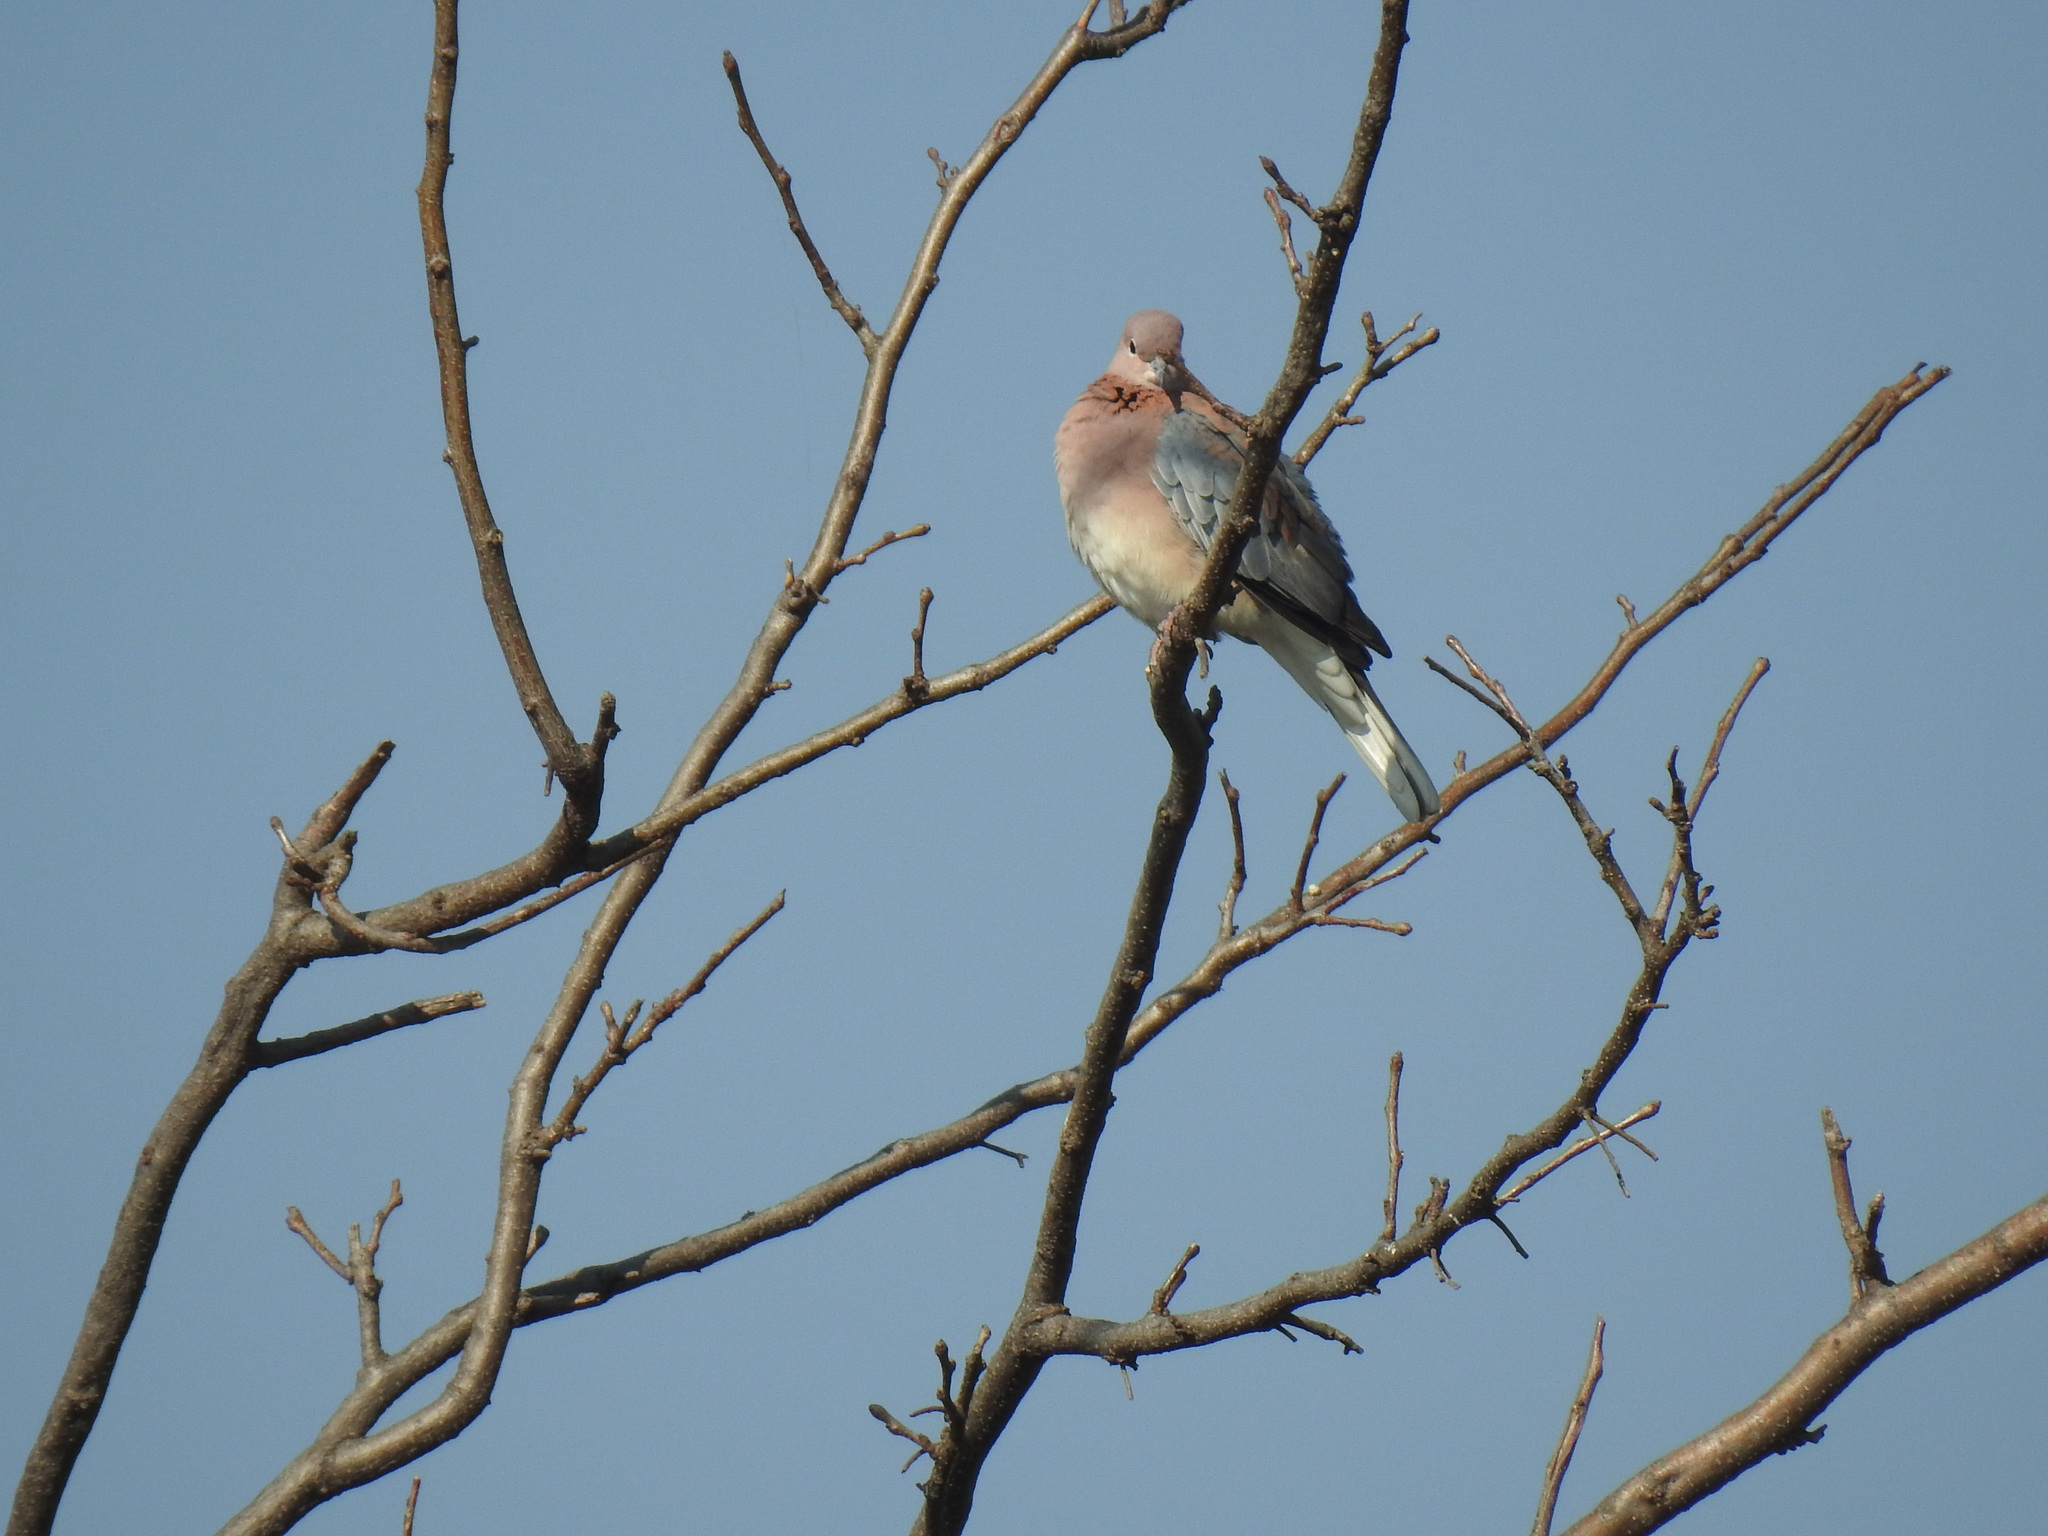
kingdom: Animalia
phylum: Chordata
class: Aves
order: Columbiformes
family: Columbidae
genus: Spilopelia
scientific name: Spilopelia senegalensis
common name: Laughing dove
